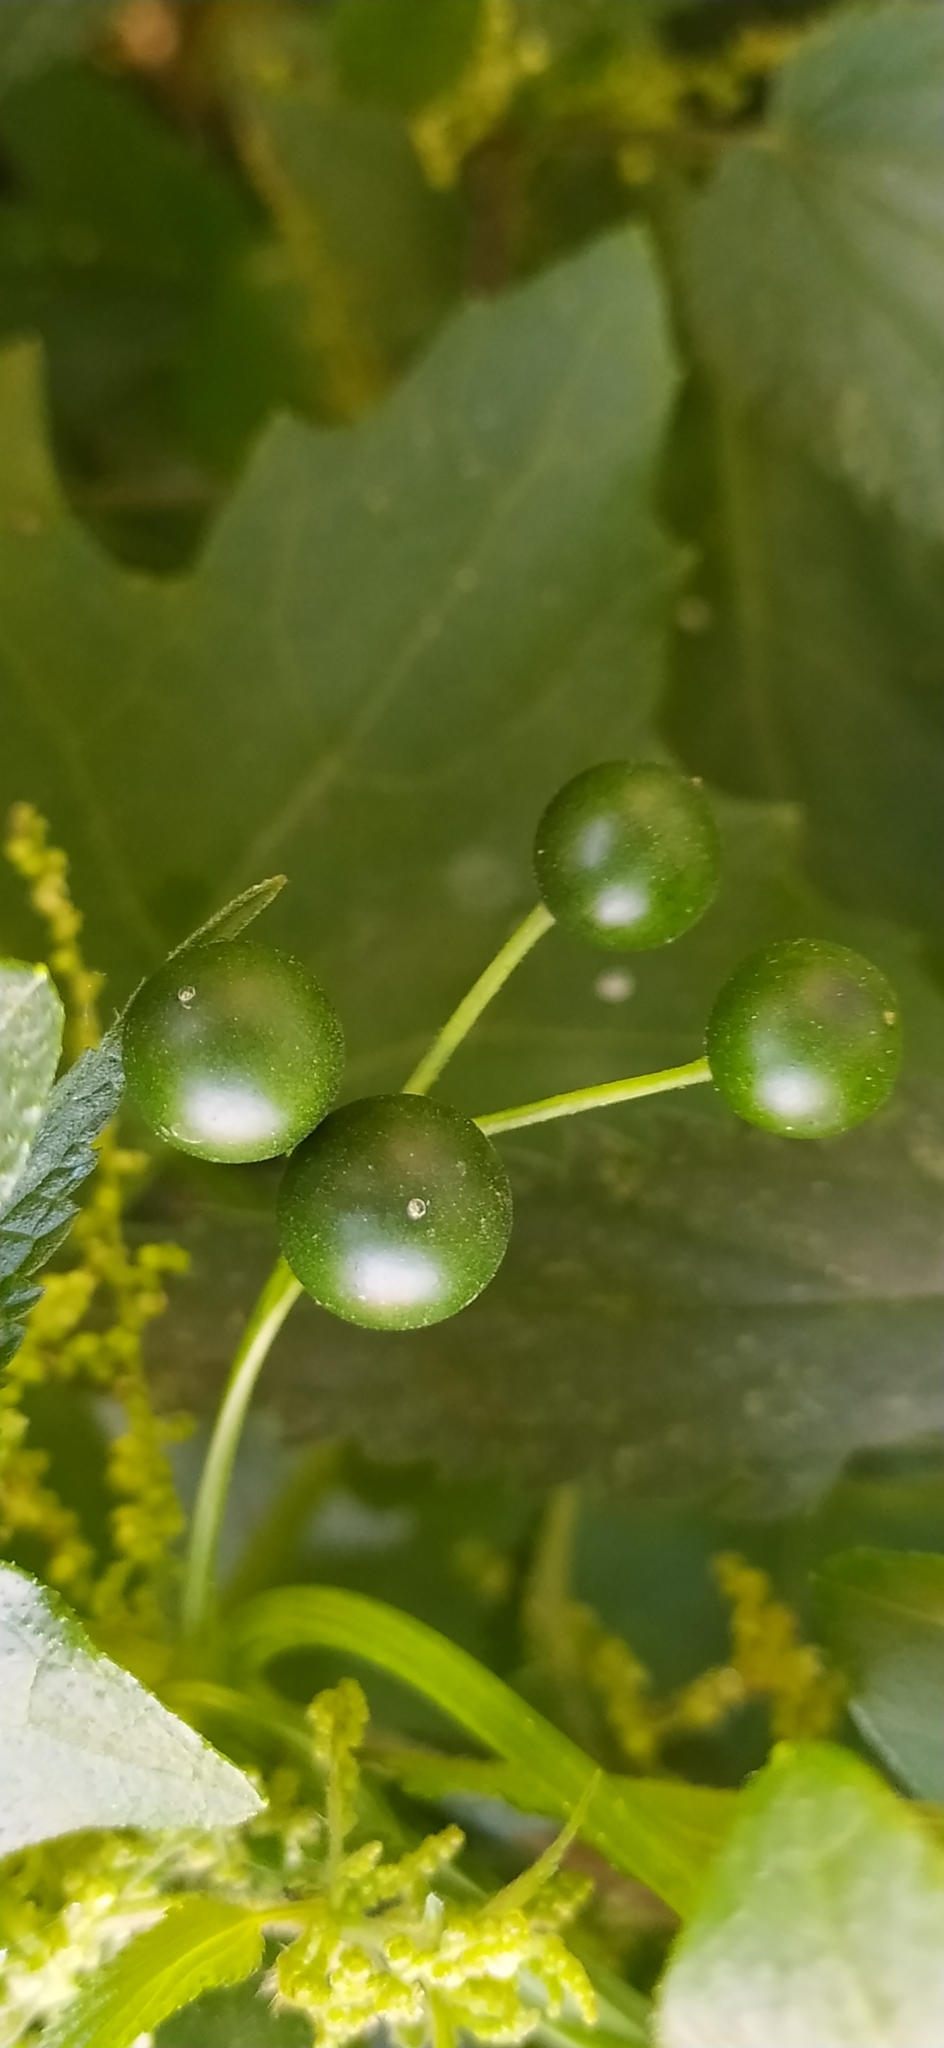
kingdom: Plantae
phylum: Tracheophyta
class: Magnoliopsida
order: Cucurbitales
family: Cucurbitaceae
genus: Bryonia
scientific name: Bryonia alba
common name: White bryony
